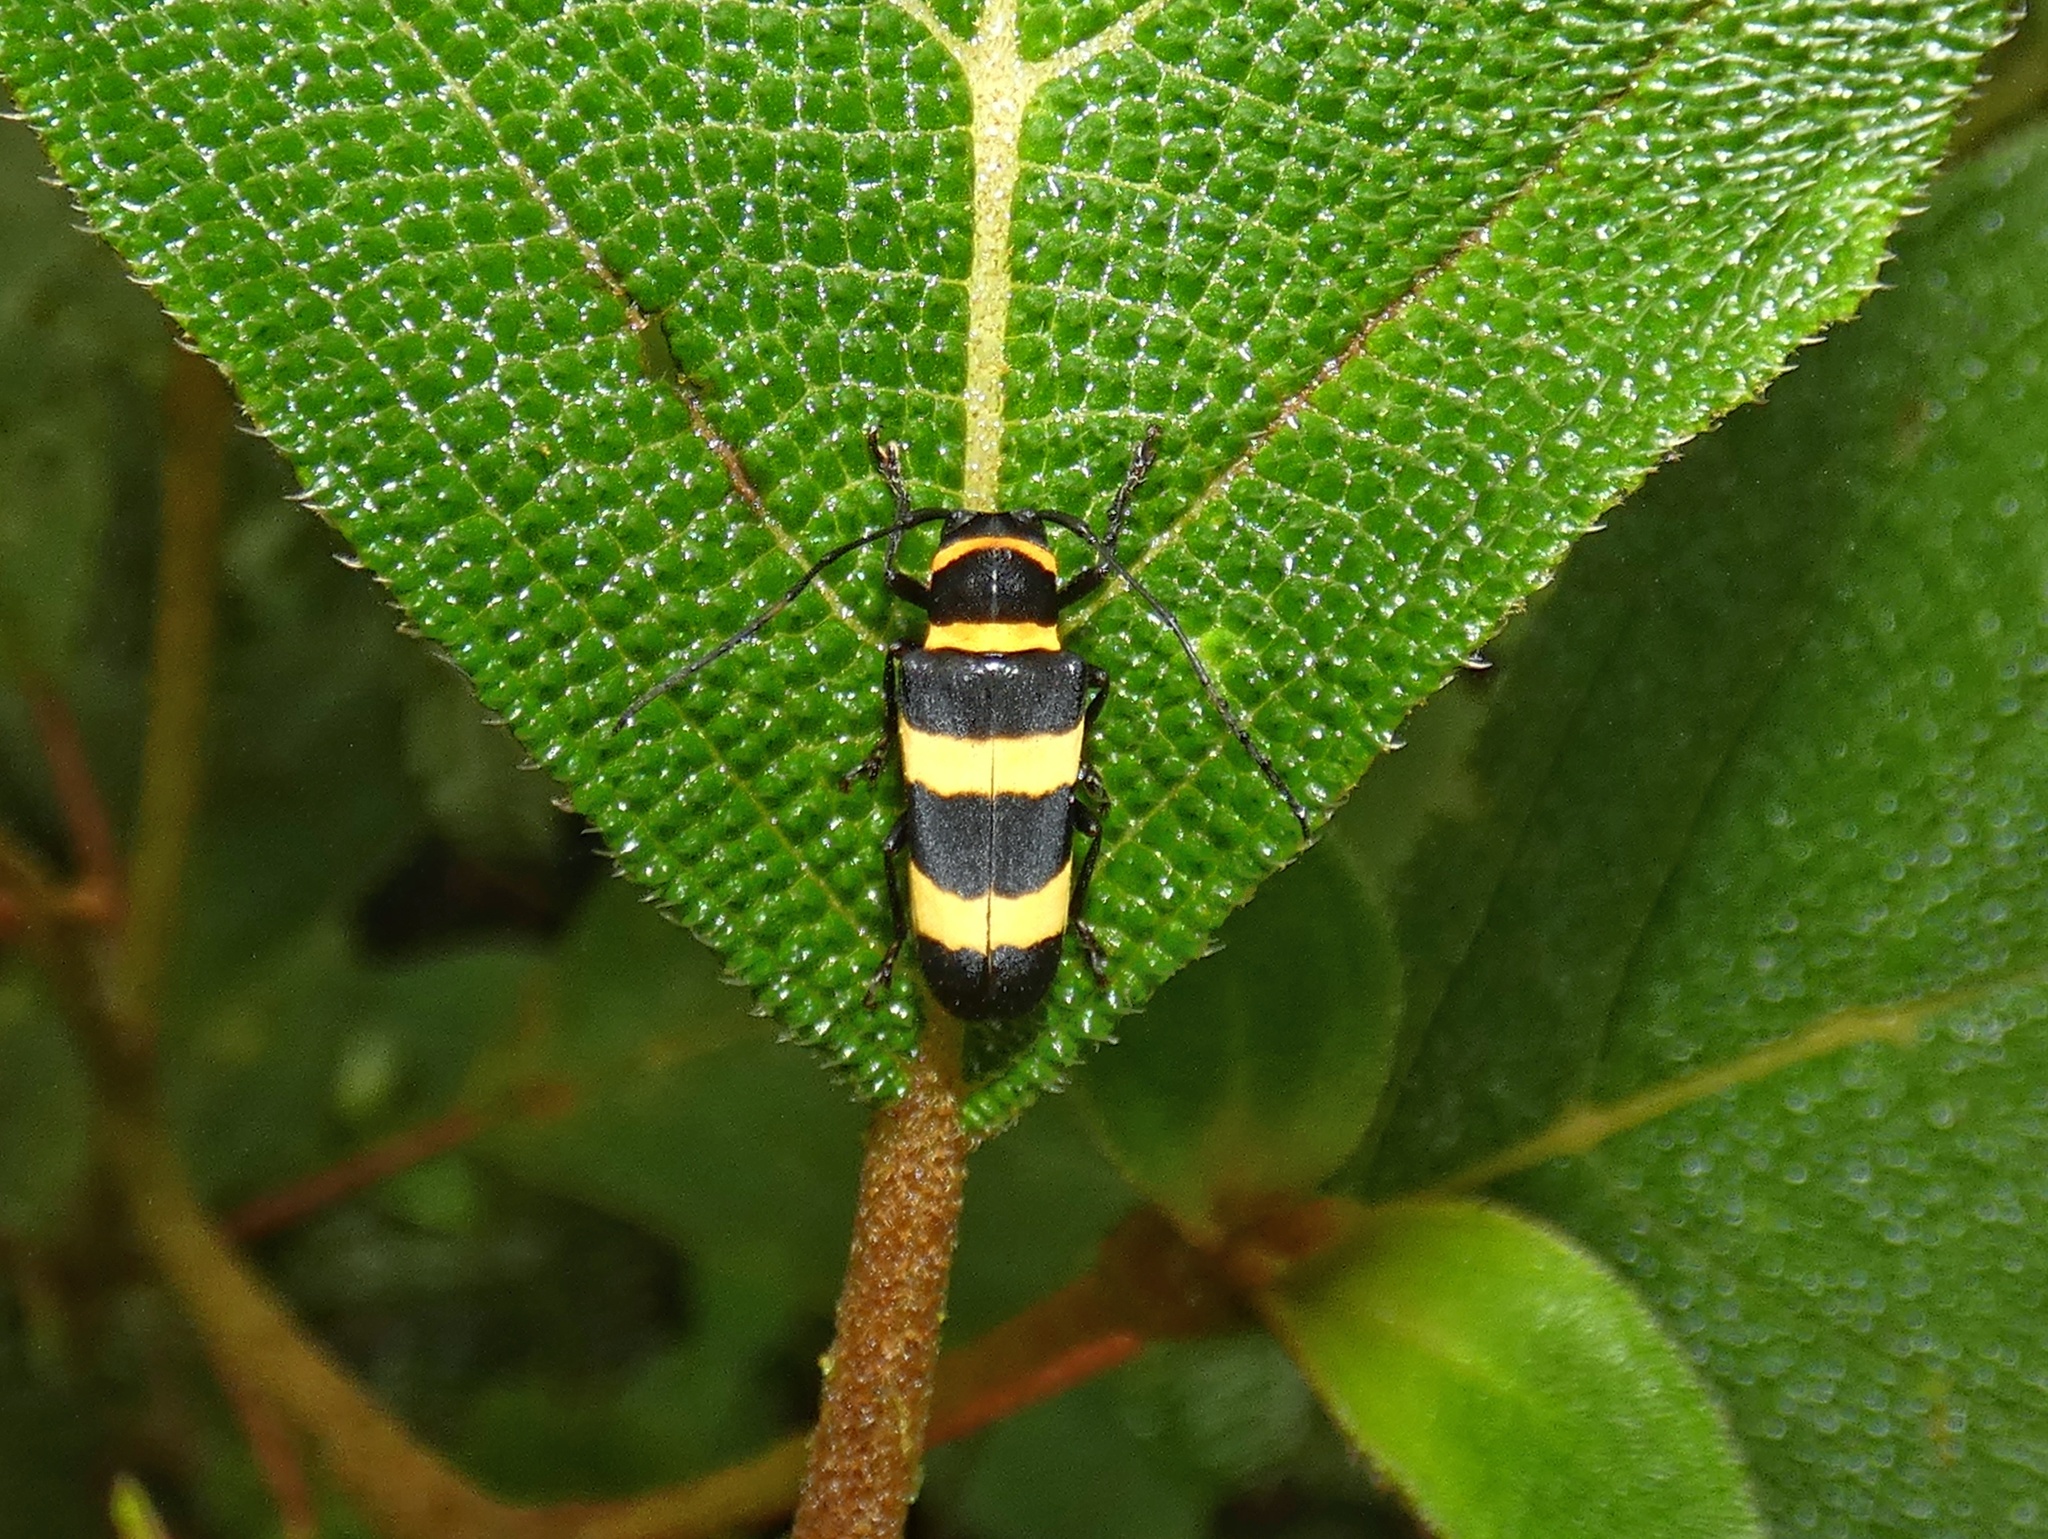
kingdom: Animalia
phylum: Arthropoda
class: Insecta
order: Coleoptera
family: Cerambycidae
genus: Essostruthella
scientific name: Essostruthella notaticollis
